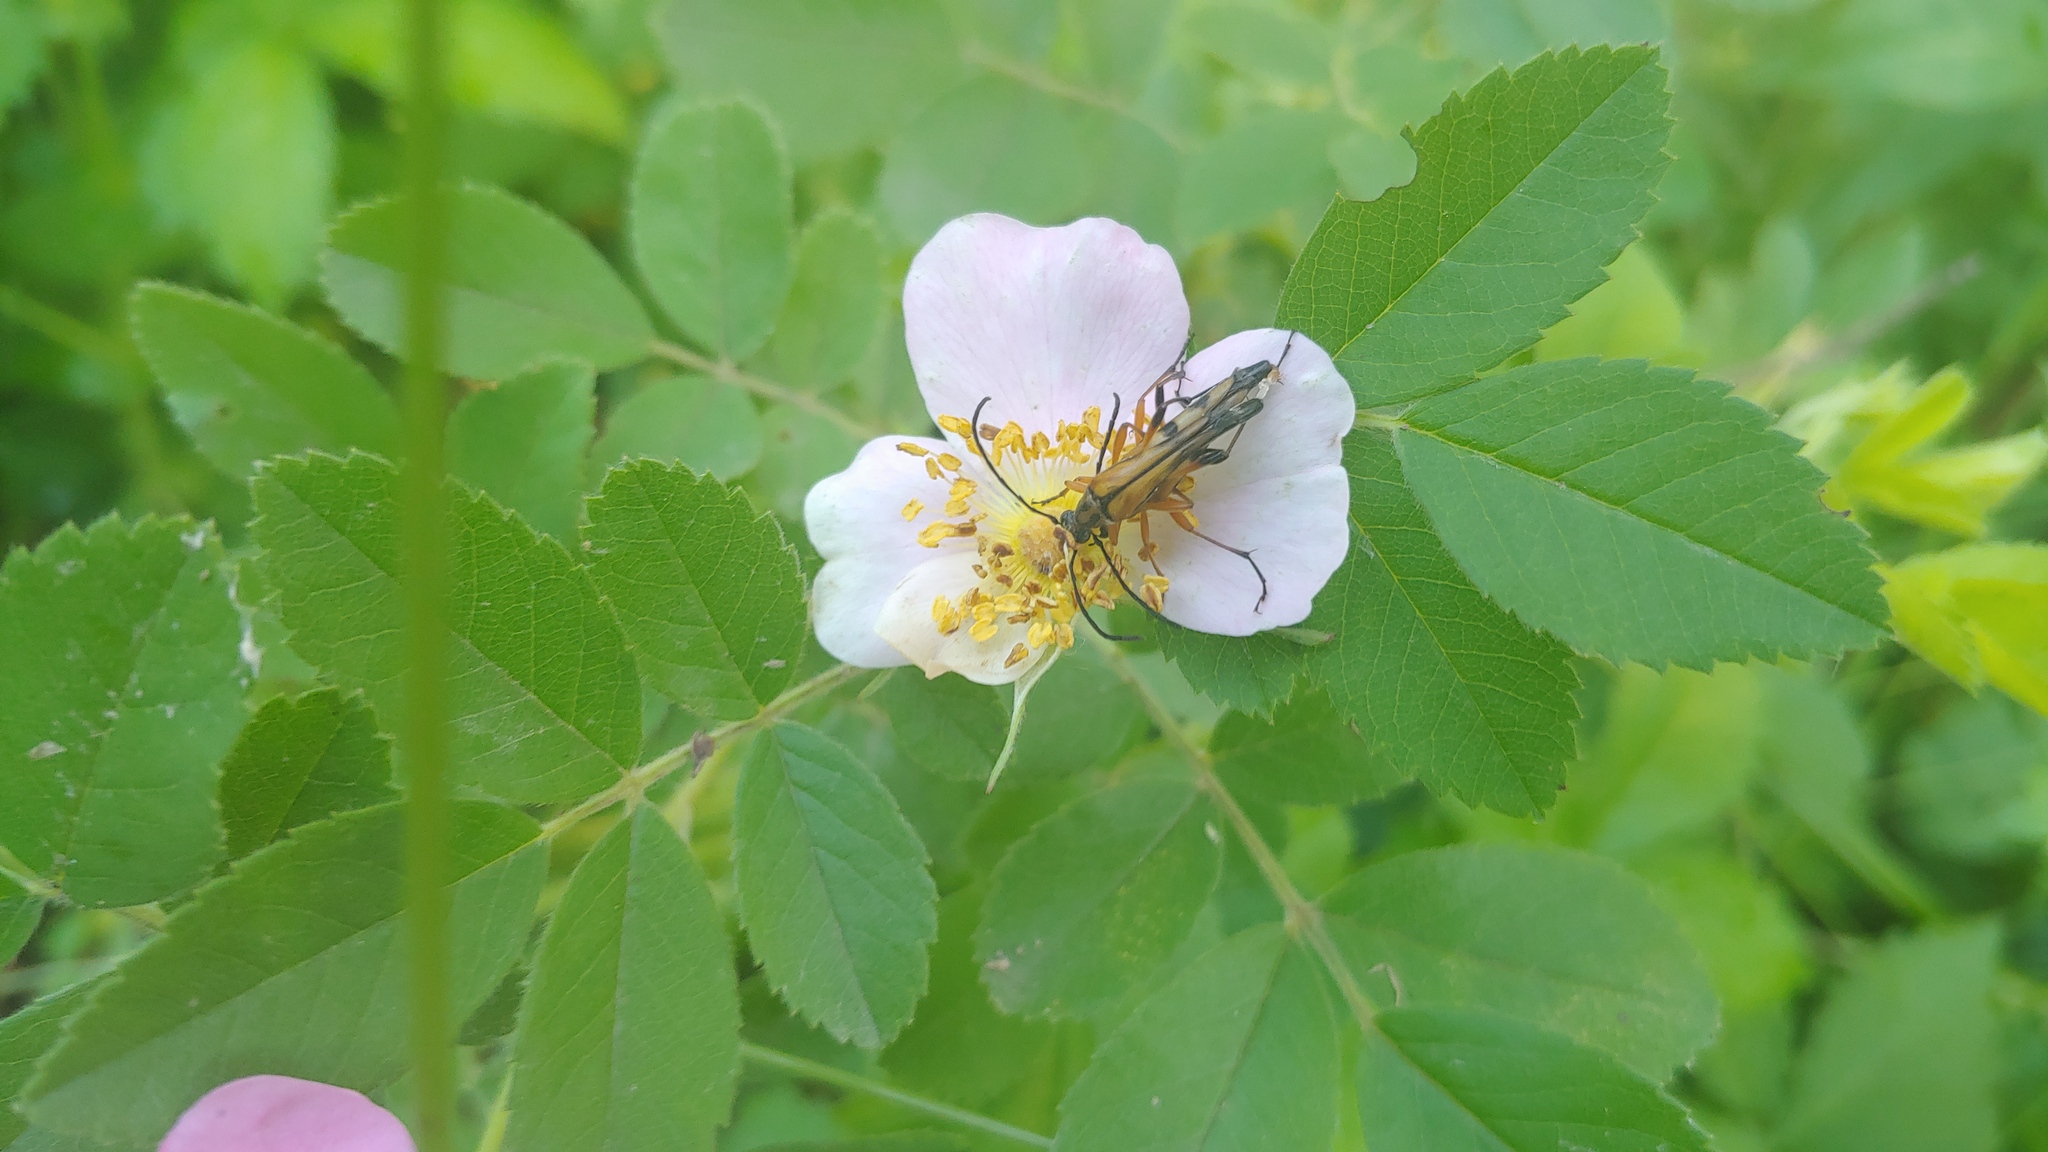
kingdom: Animalia
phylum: Arthropoda
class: Insecta
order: Coleoptera
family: Cerambycidae
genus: Strangalia
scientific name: Strangalia famelica
